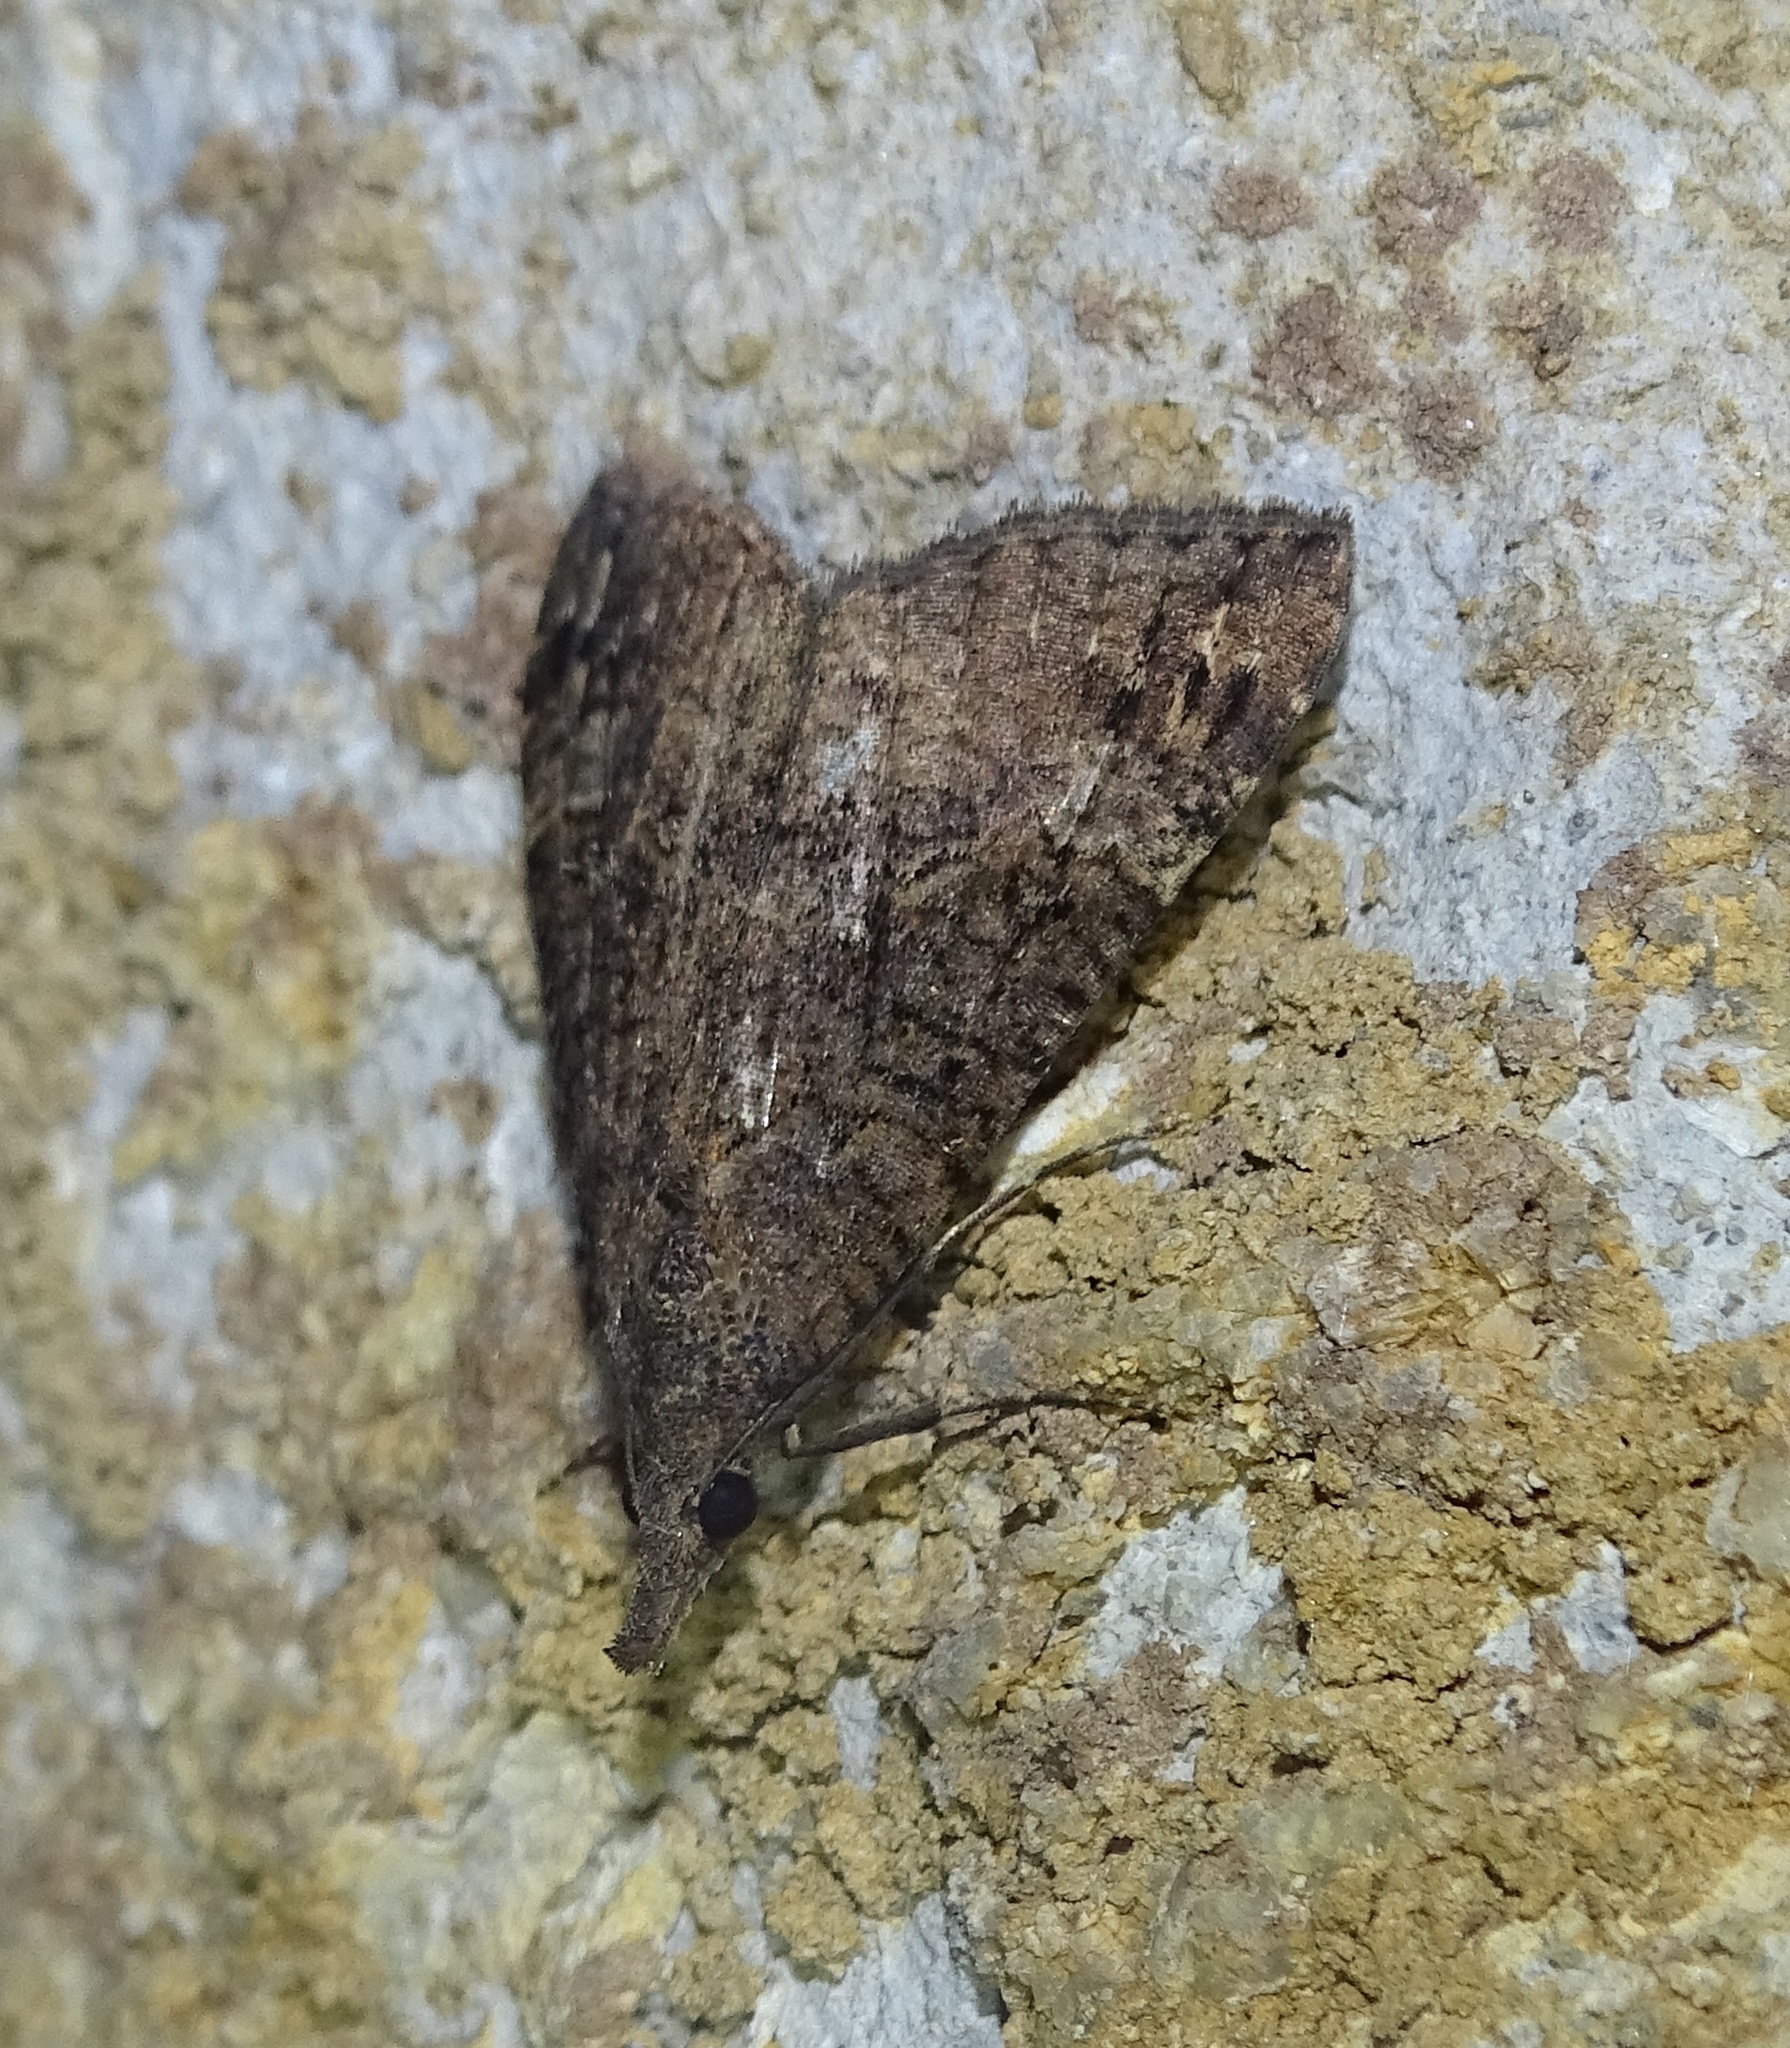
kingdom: Animalia
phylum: Arthropoda
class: Insecta
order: Lepidoptera
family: Erebidae
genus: Hypena
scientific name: Hypena obsitalis
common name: Bloxworth snout
